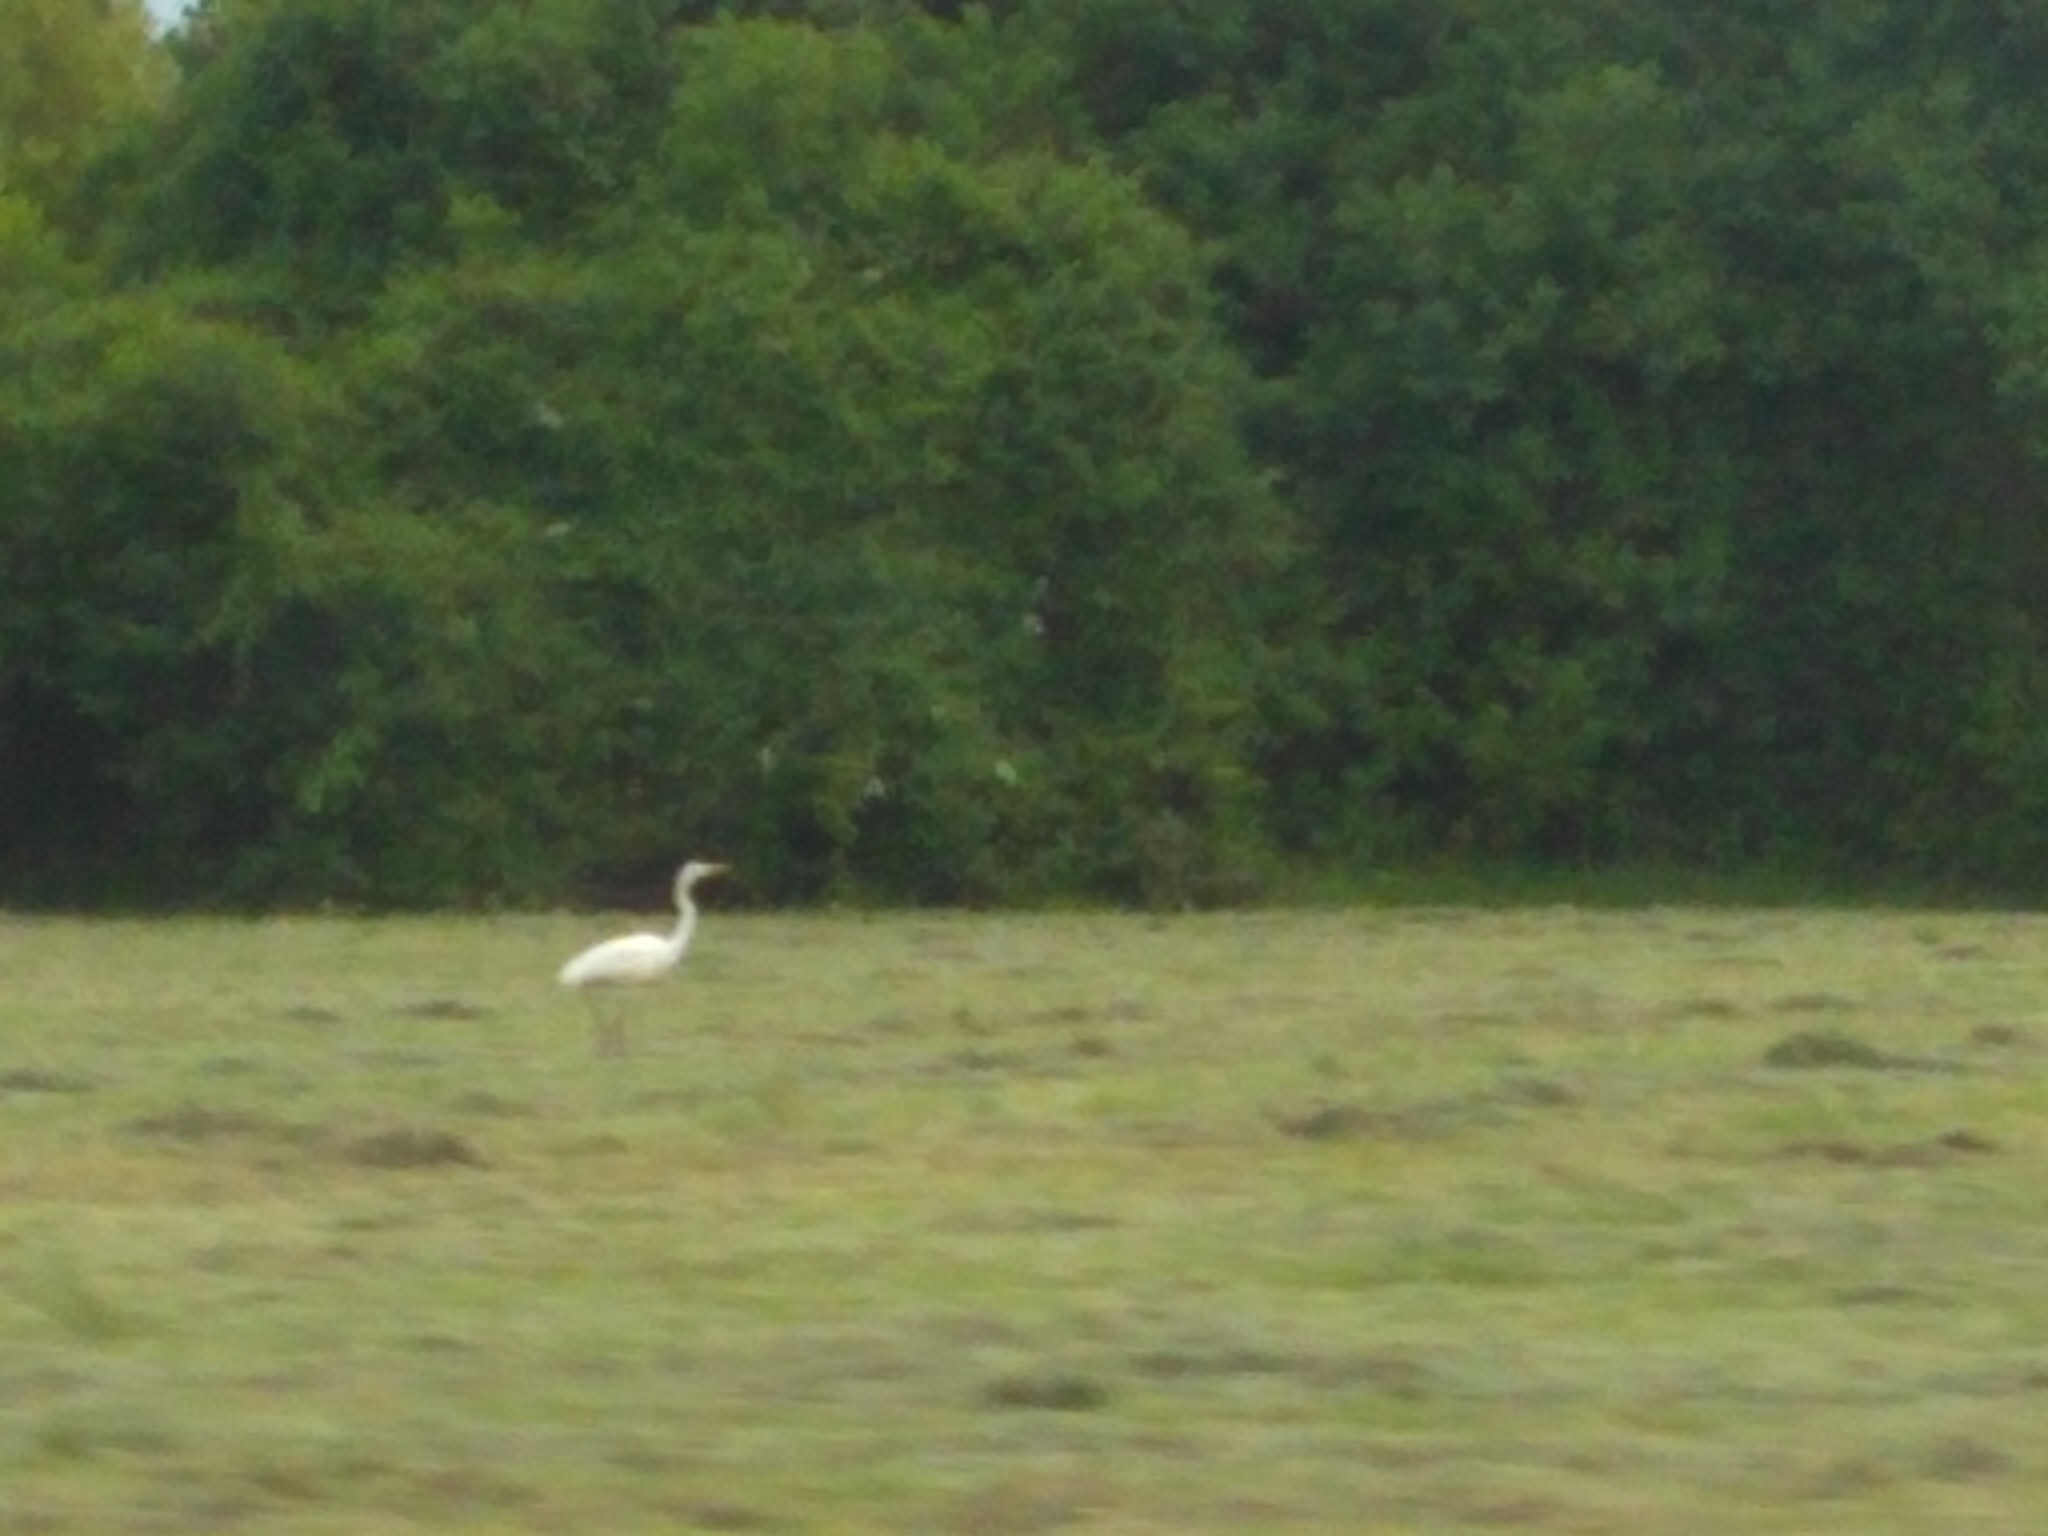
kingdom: Animalia
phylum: Chordata
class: Aves
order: Pelecaniformes
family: Ardeidae
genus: Ardea
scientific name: Ardea alba
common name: Great egret
